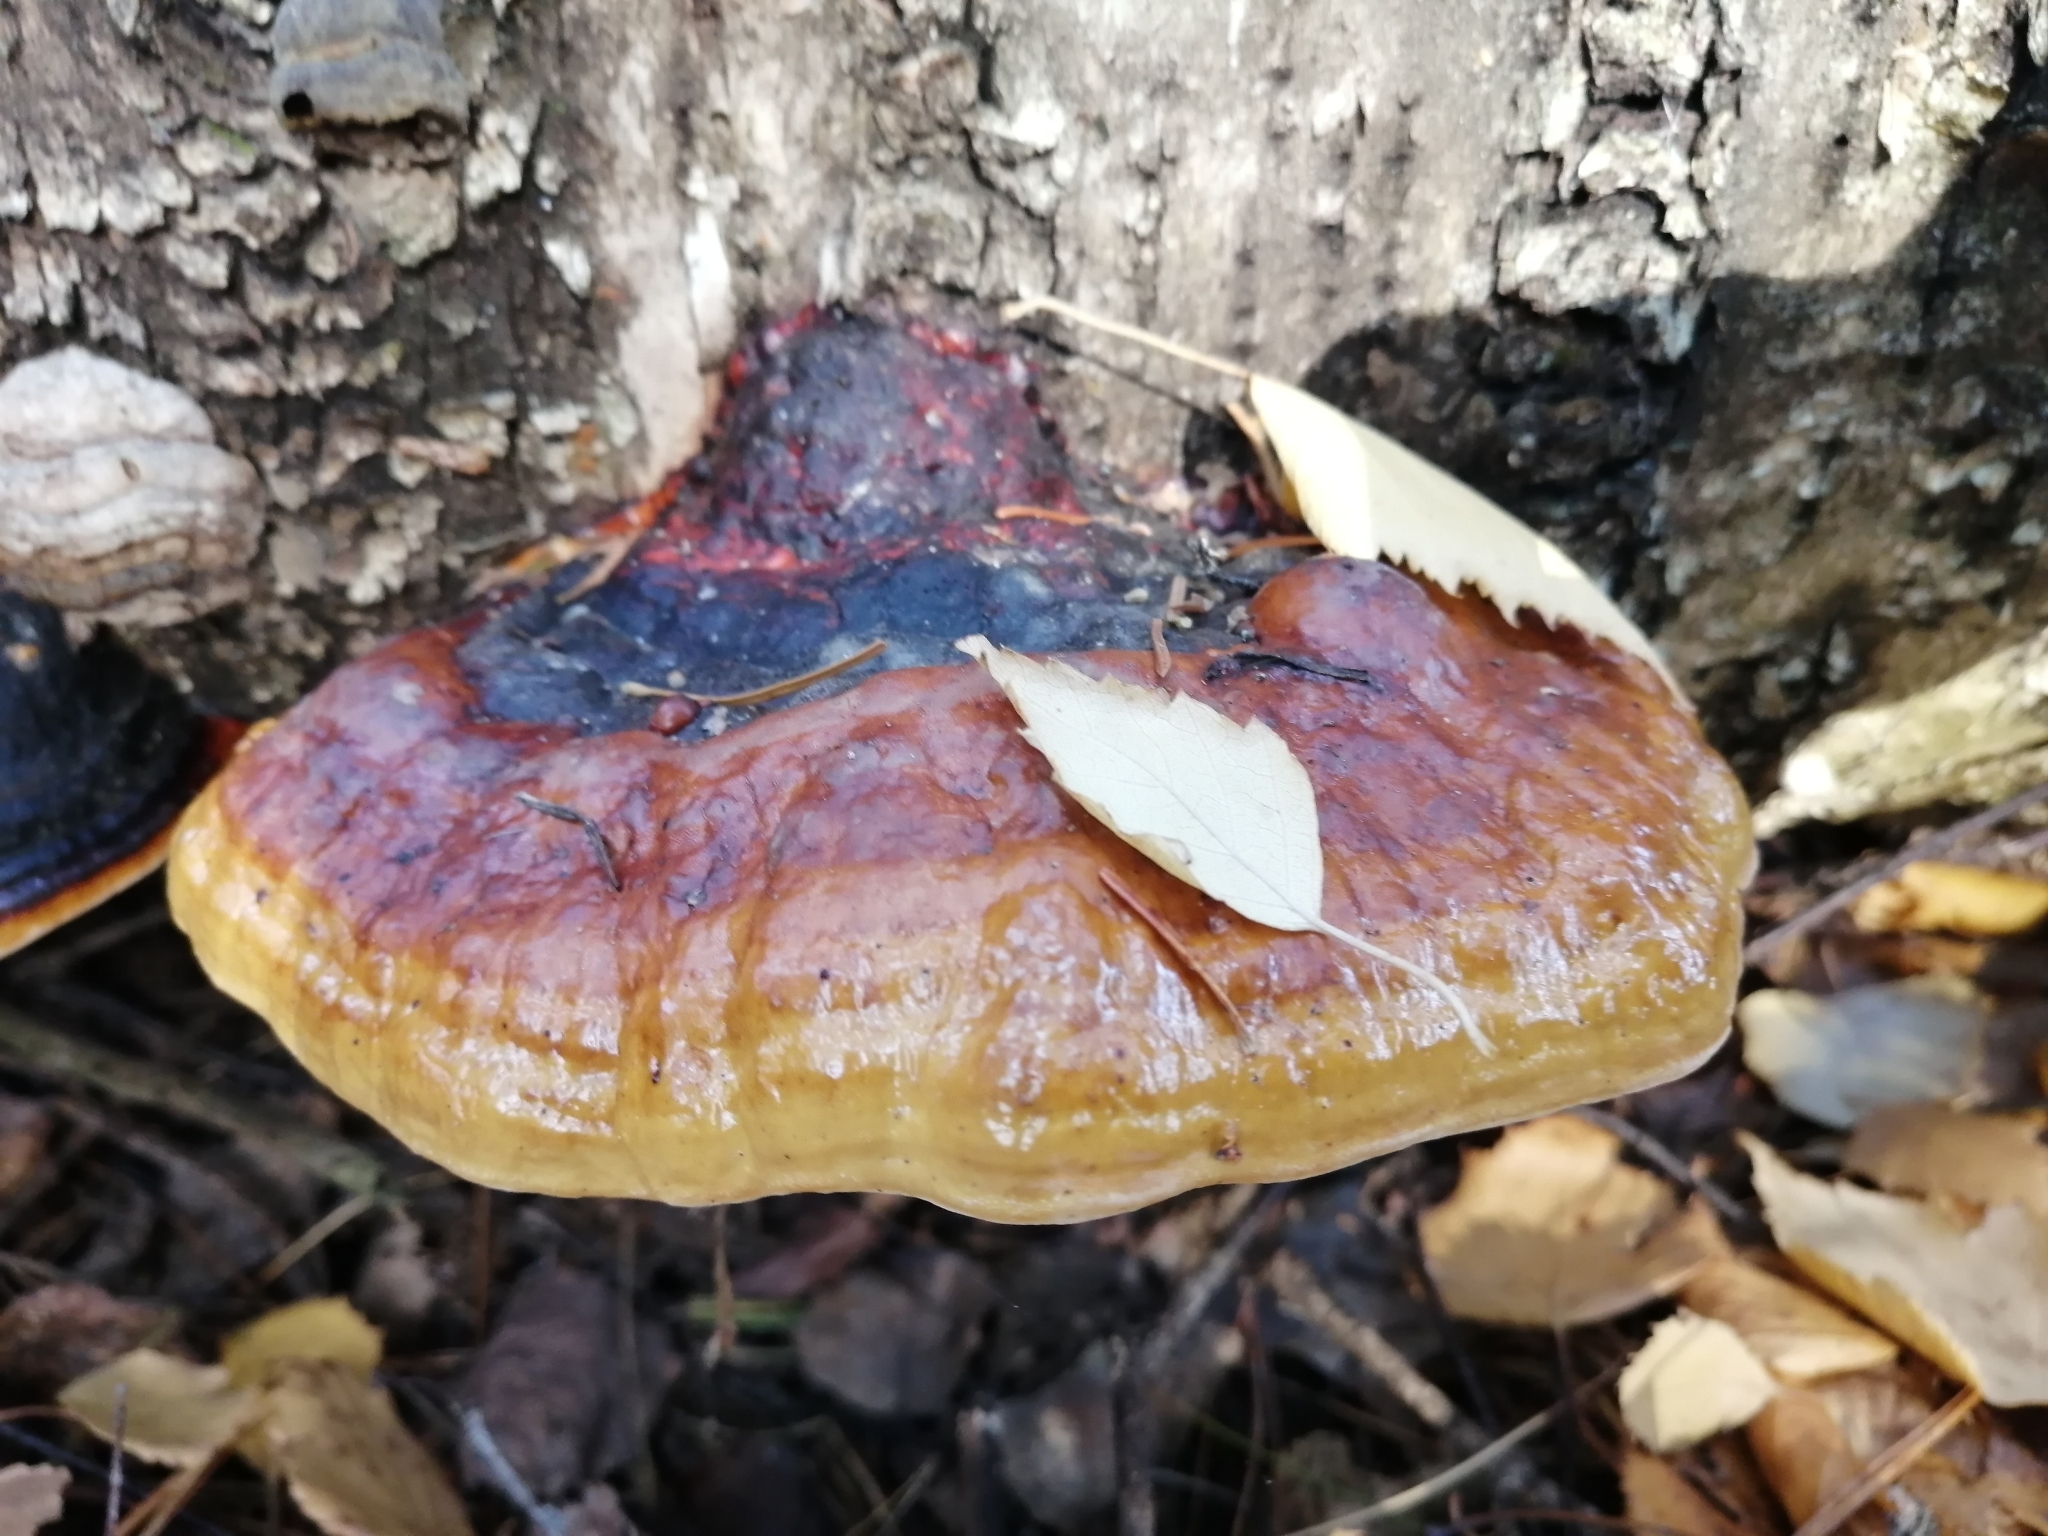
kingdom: Fungi
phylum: Basidiomycota
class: Agaricomycetes
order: Polyporales
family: Fomitopsidaceae
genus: Fomitopsis
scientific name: Fomitopsis pinicola
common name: Red-belted bracket
